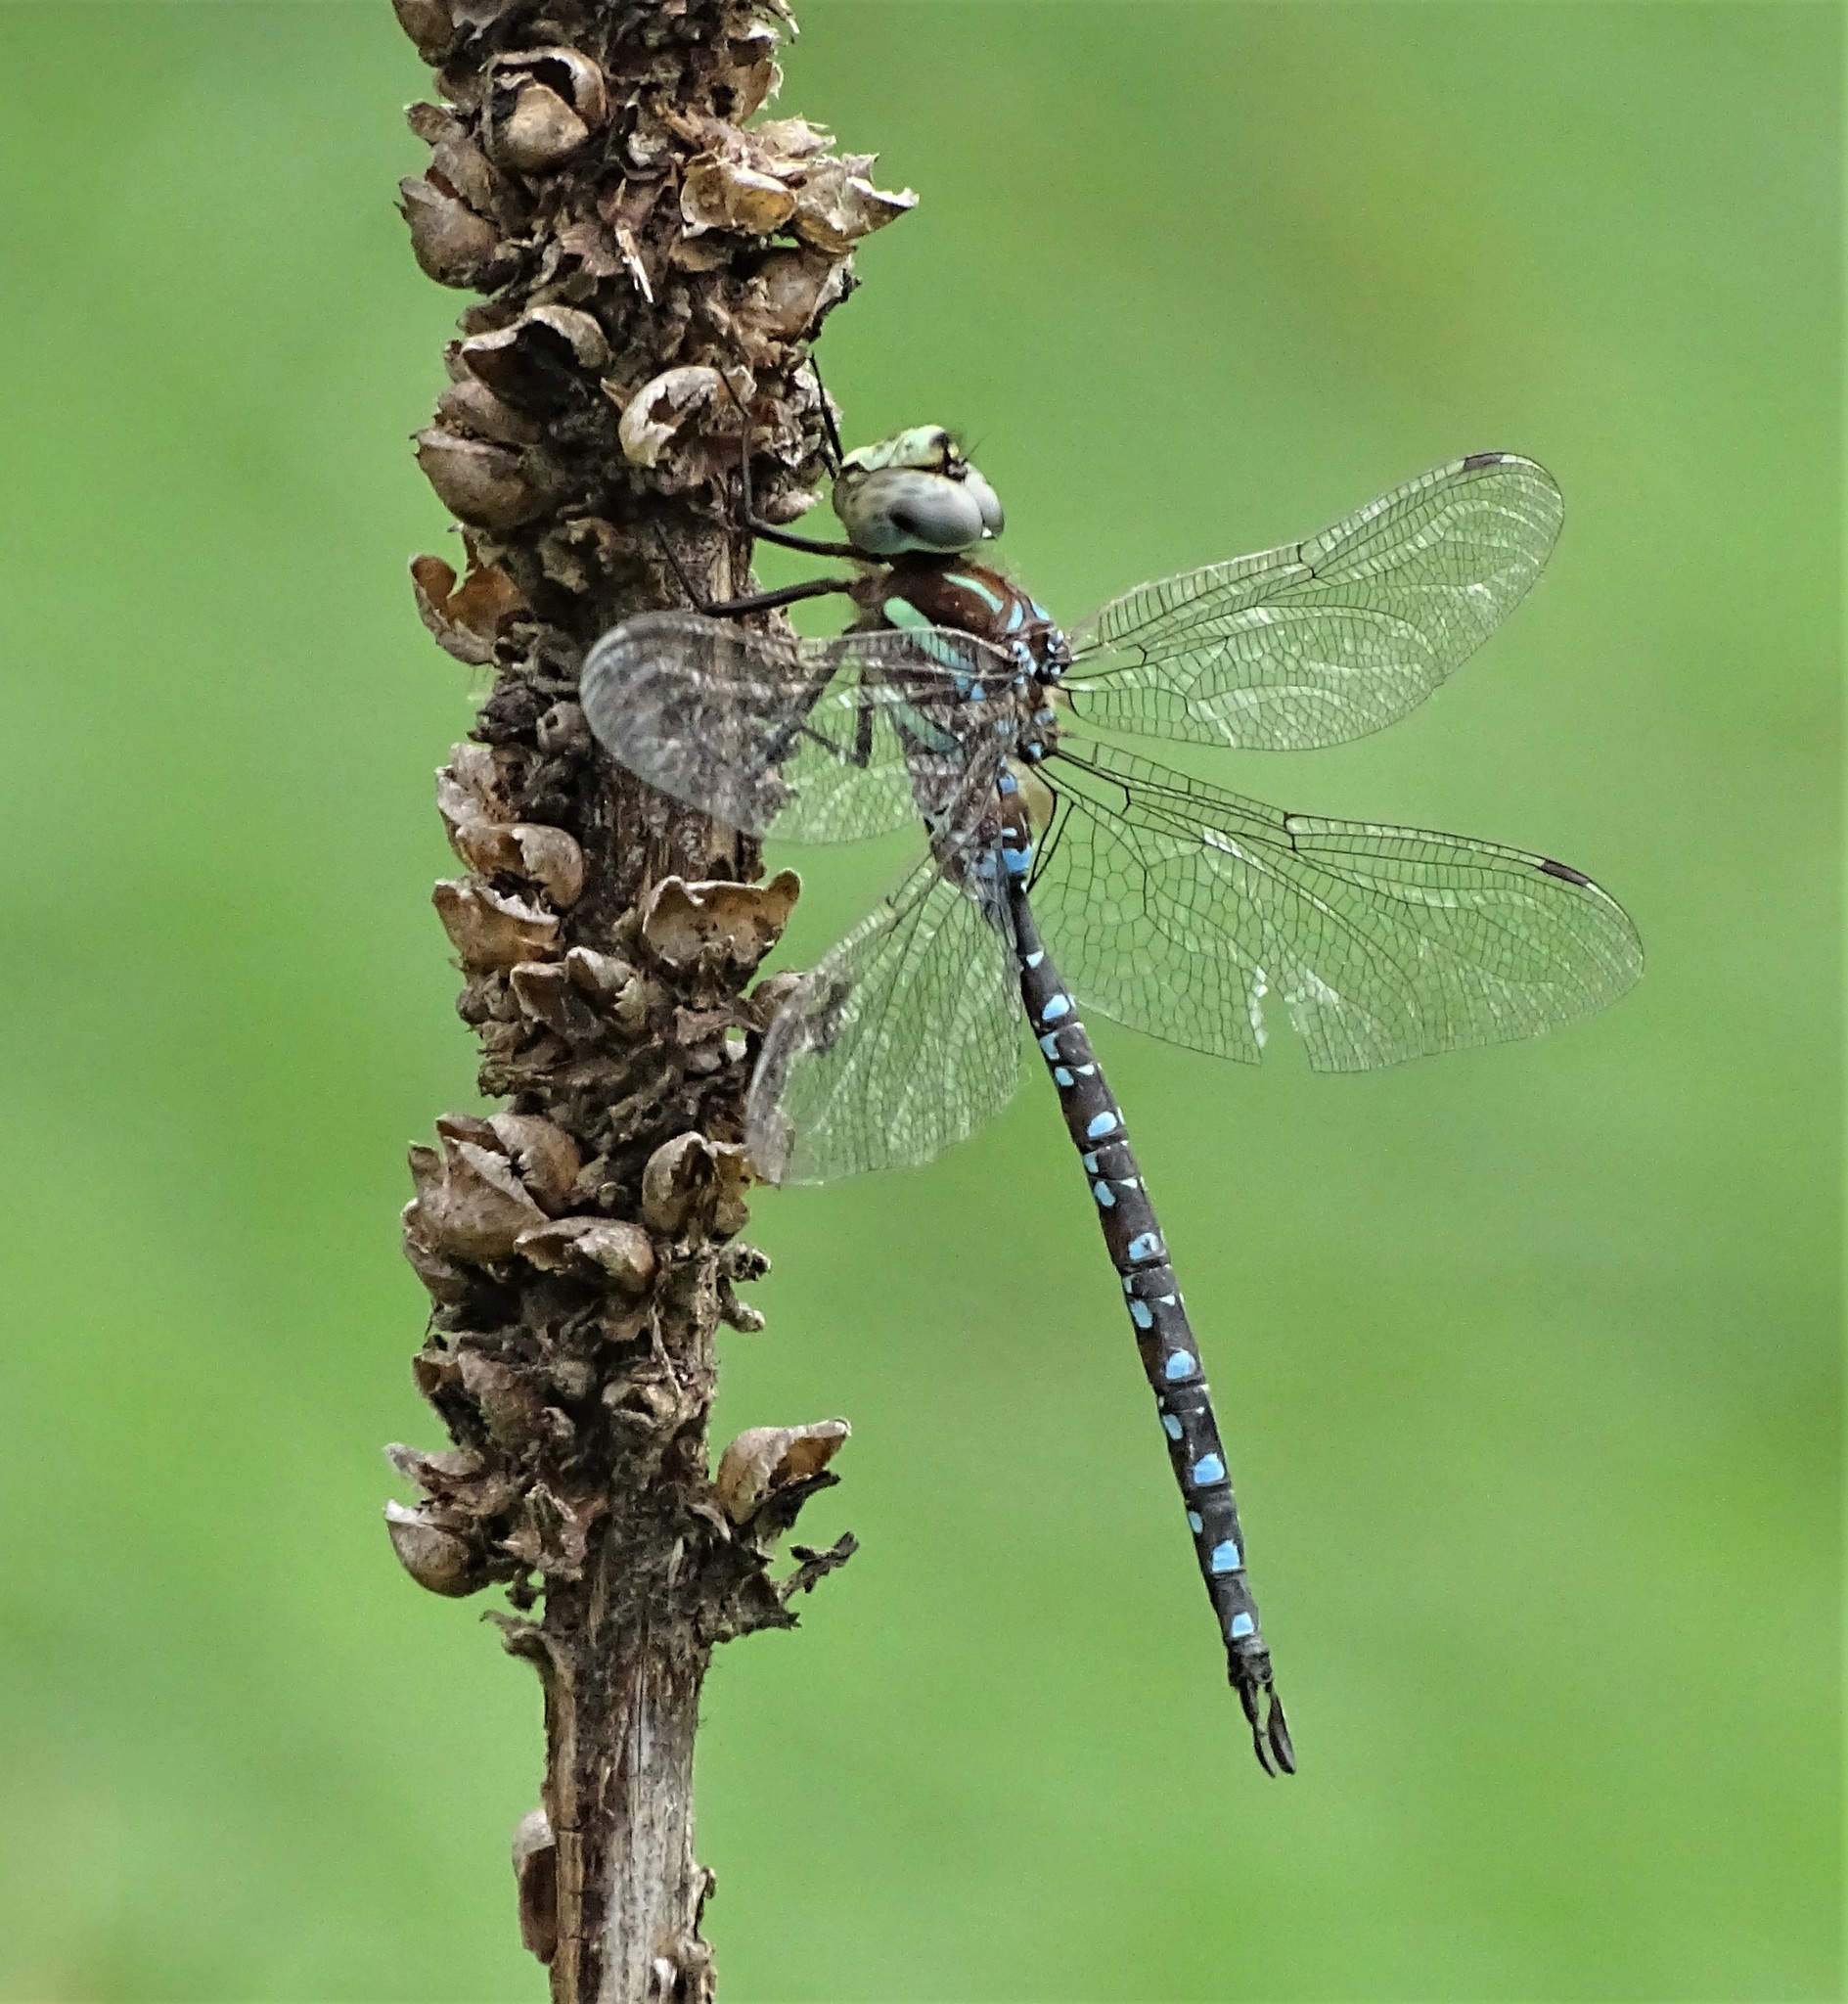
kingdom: Animalia
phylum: Arthropoda
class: Insecta
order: Odonata
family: Aeshnidae
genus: Aeshna
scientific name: Aeshna tuberculifera
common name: Aeschne à tubercules
